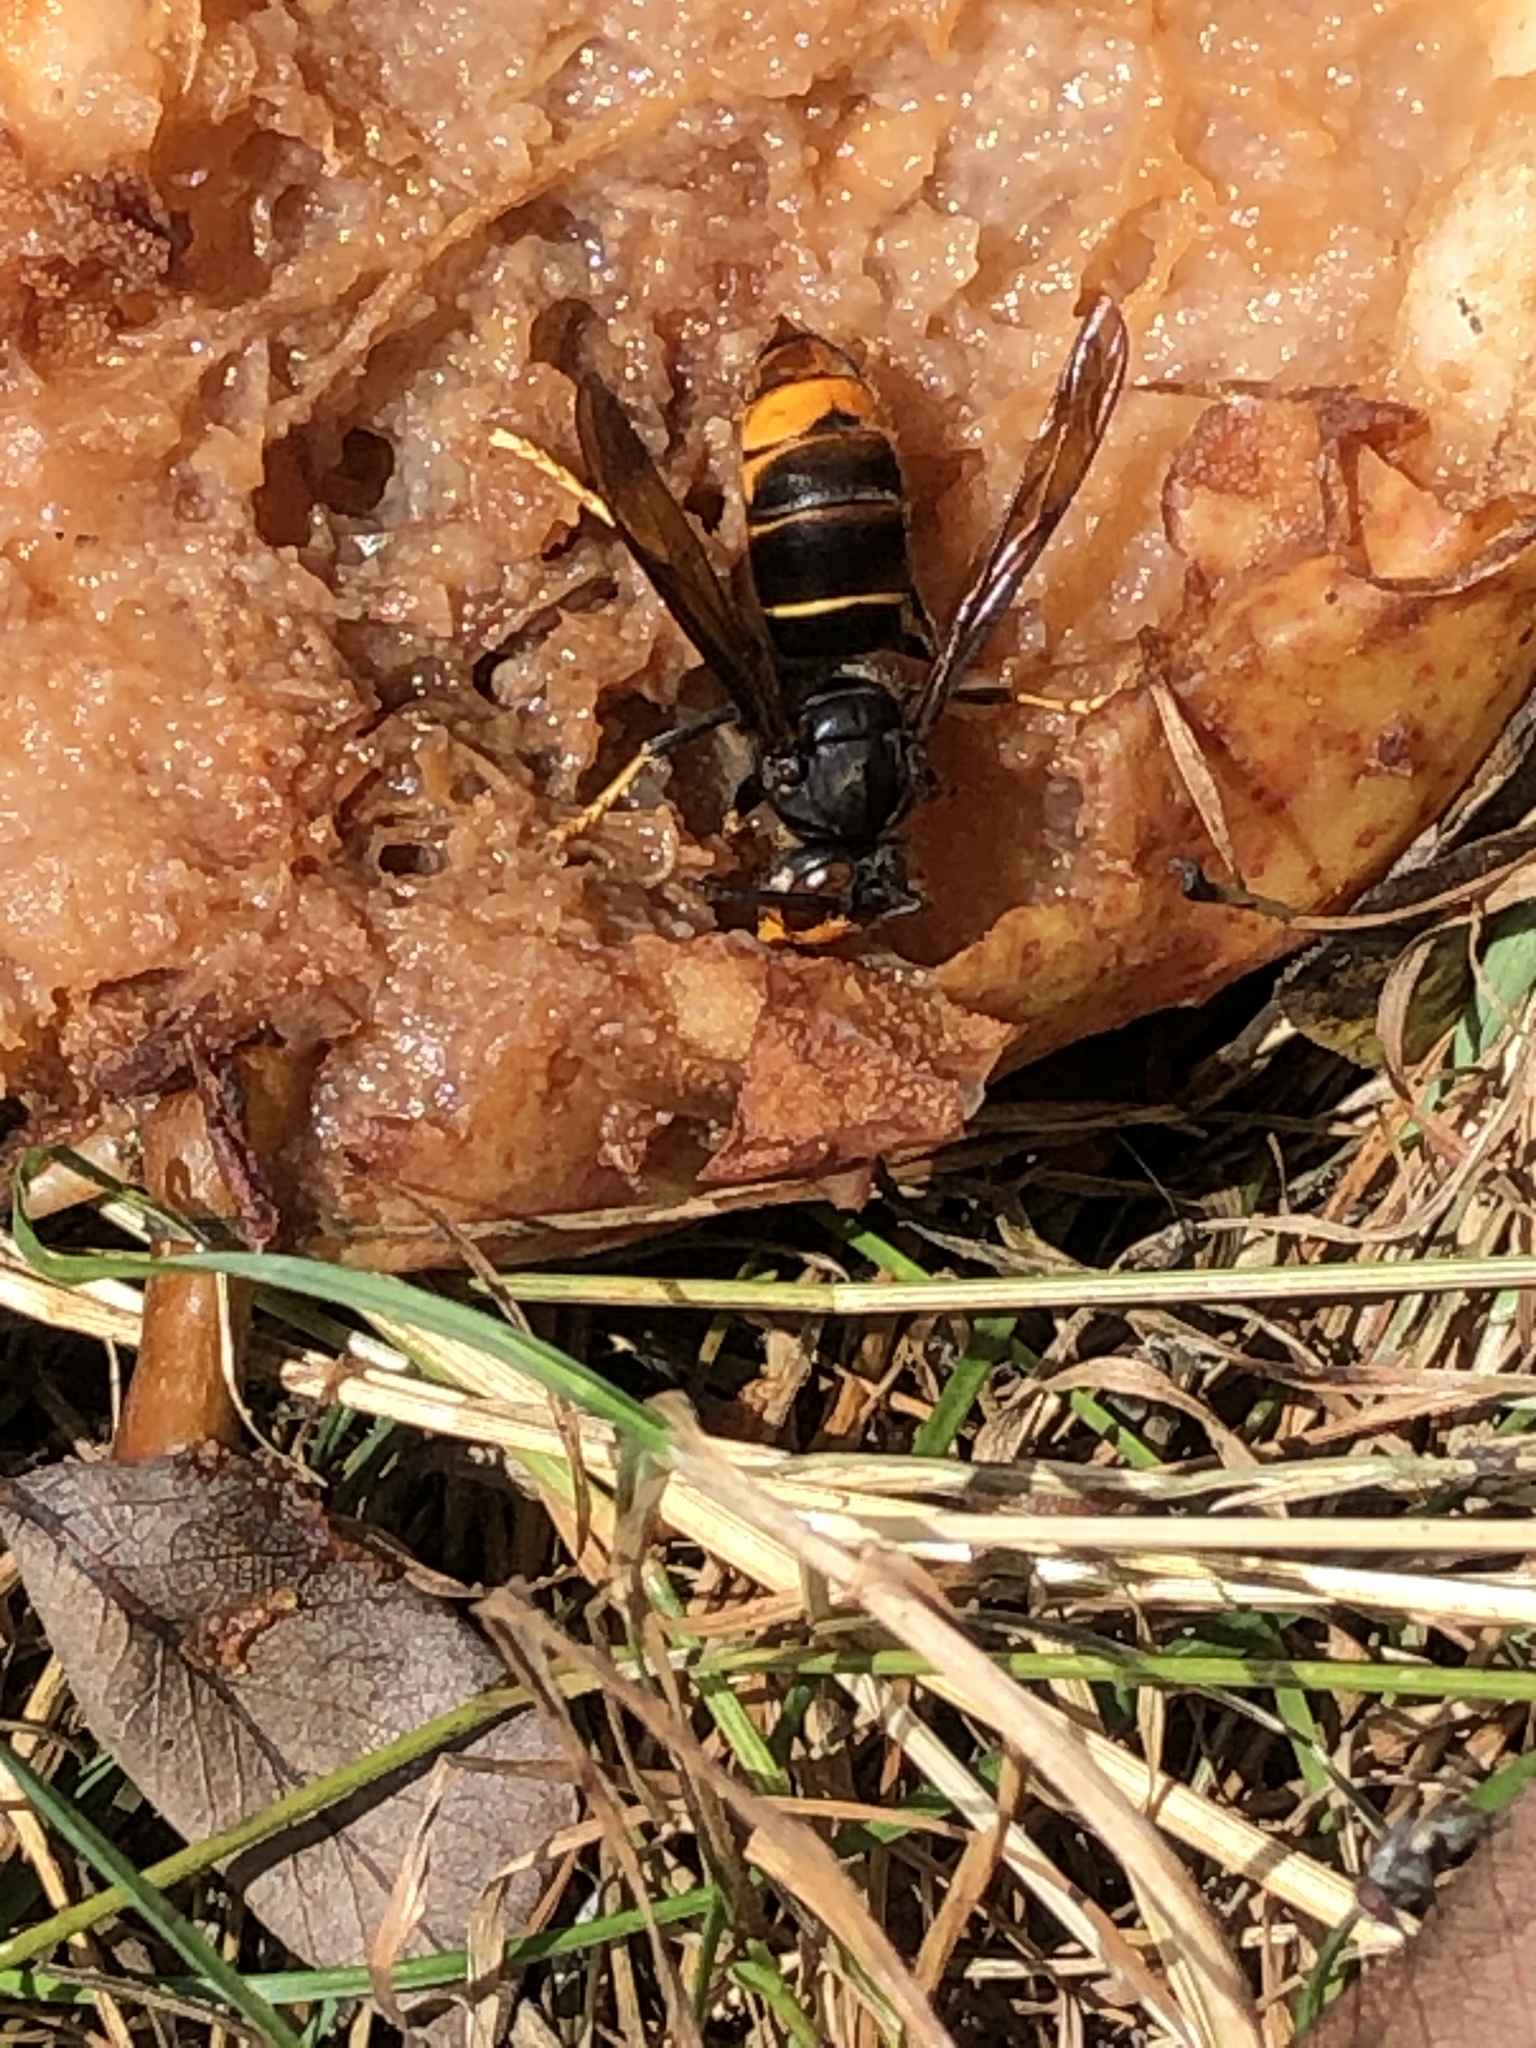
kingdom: Animalia
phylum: Arthropoda
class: Insecta
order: Hymenoptera
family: Vespidae
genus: Vespa
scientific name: Vespa velutina
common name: Asian hornet
